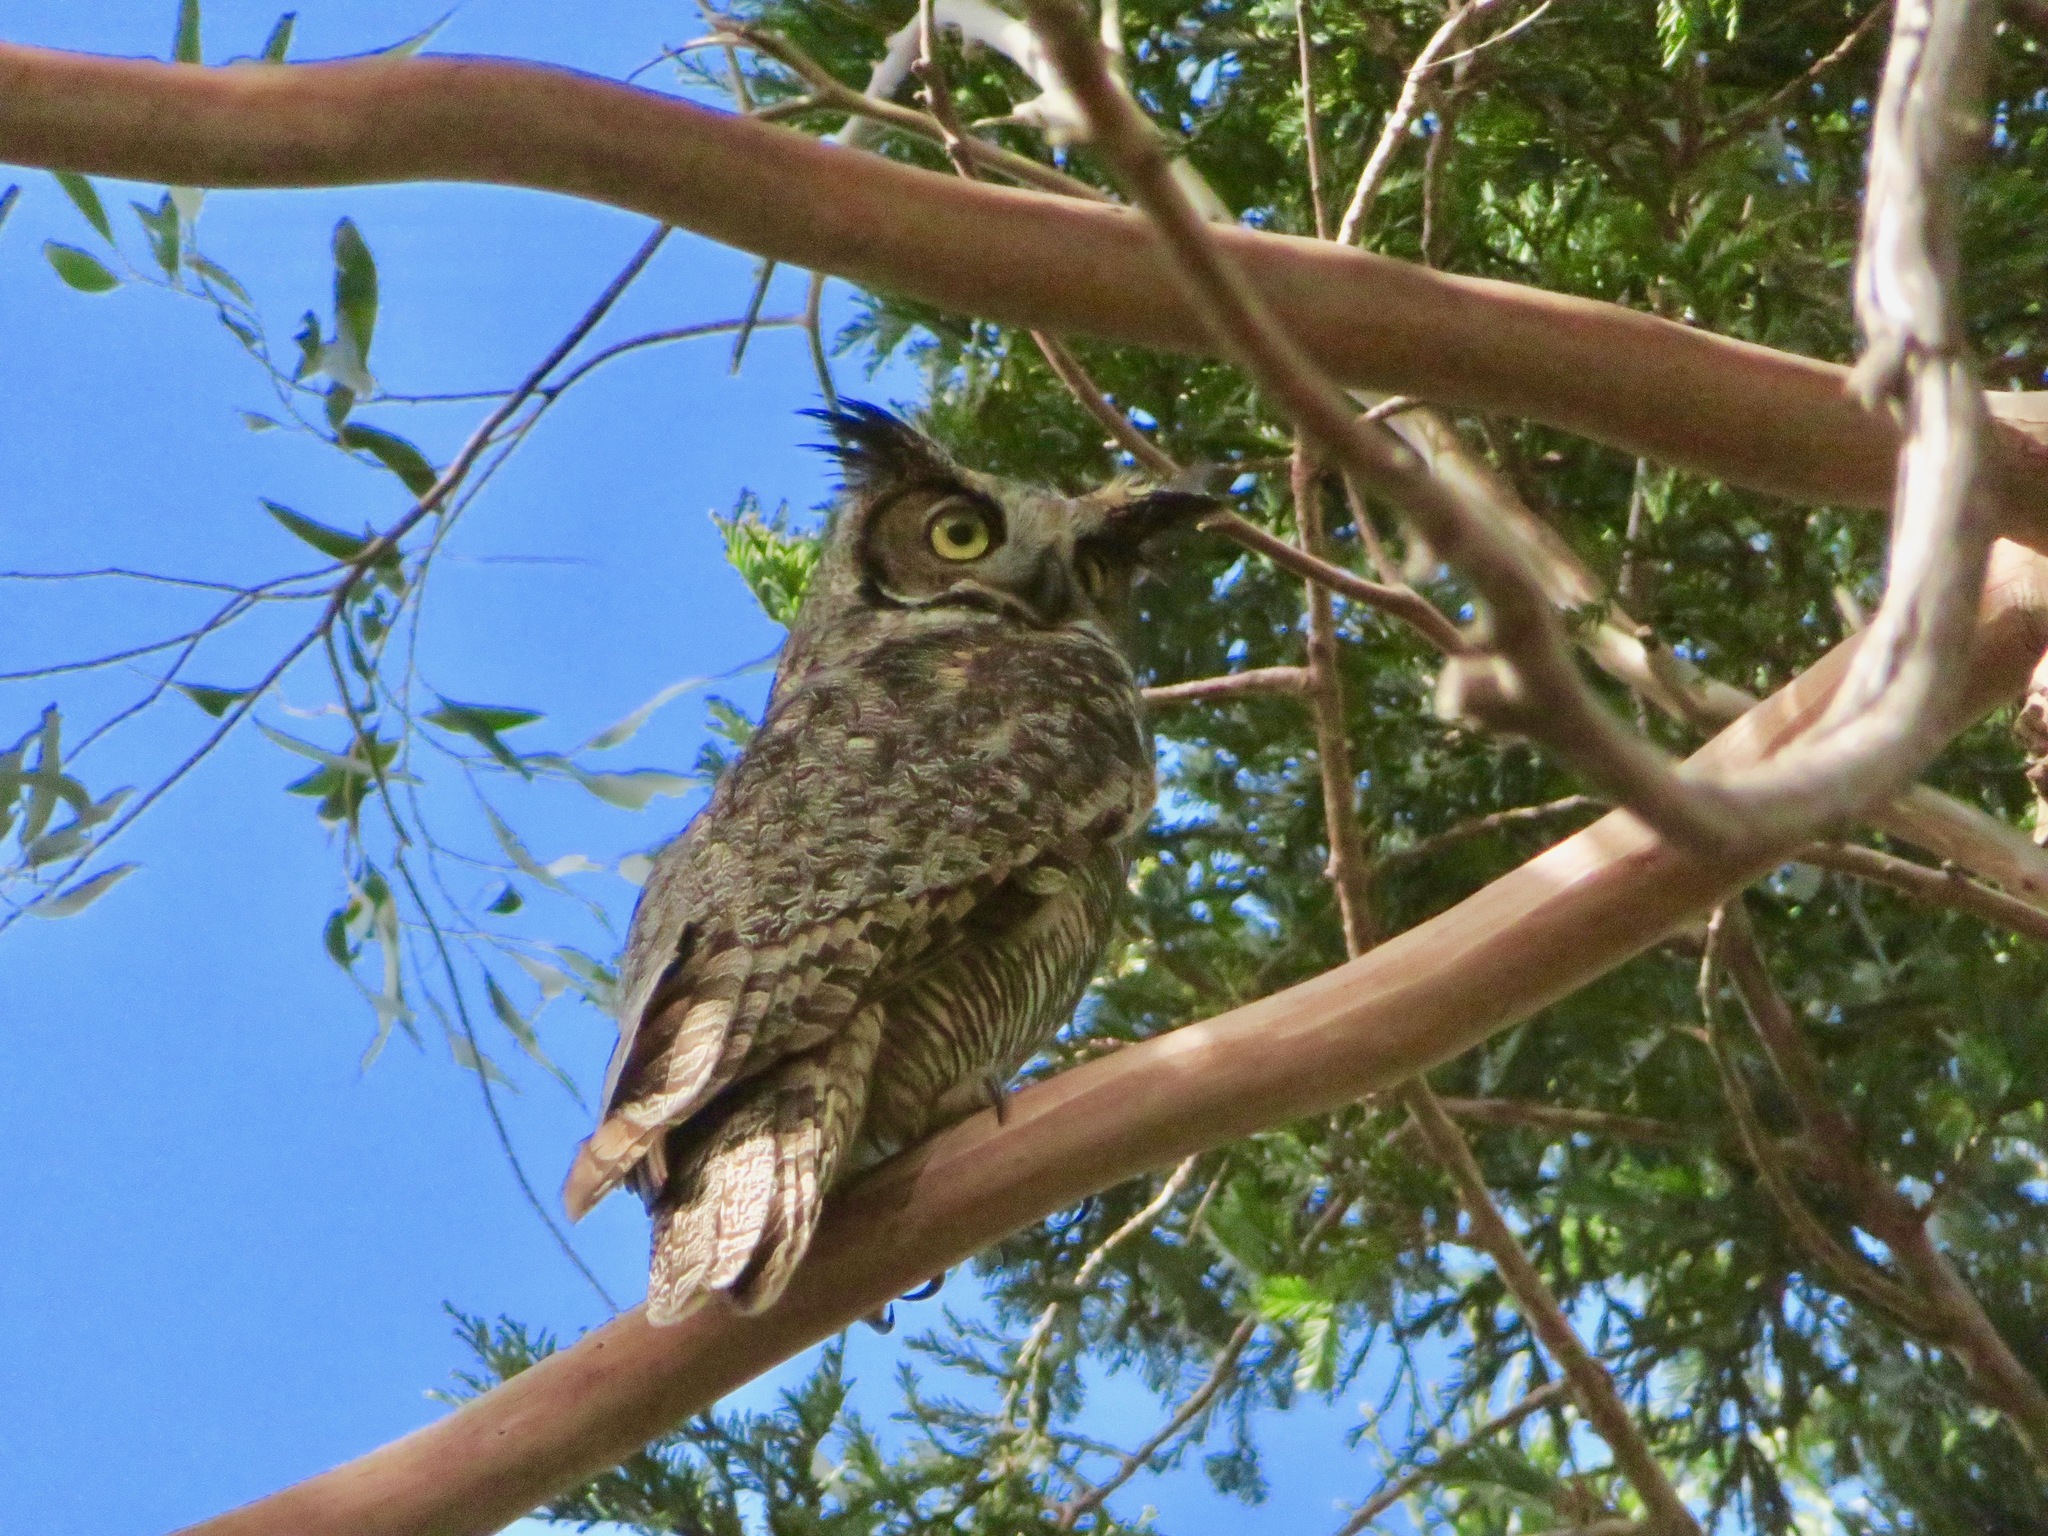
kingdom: Animalia
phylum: Chordata
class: Aves
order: Strigiformes
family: Strigidae
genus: Bubo
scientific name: Bubo virginianus
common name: Great horned owl
